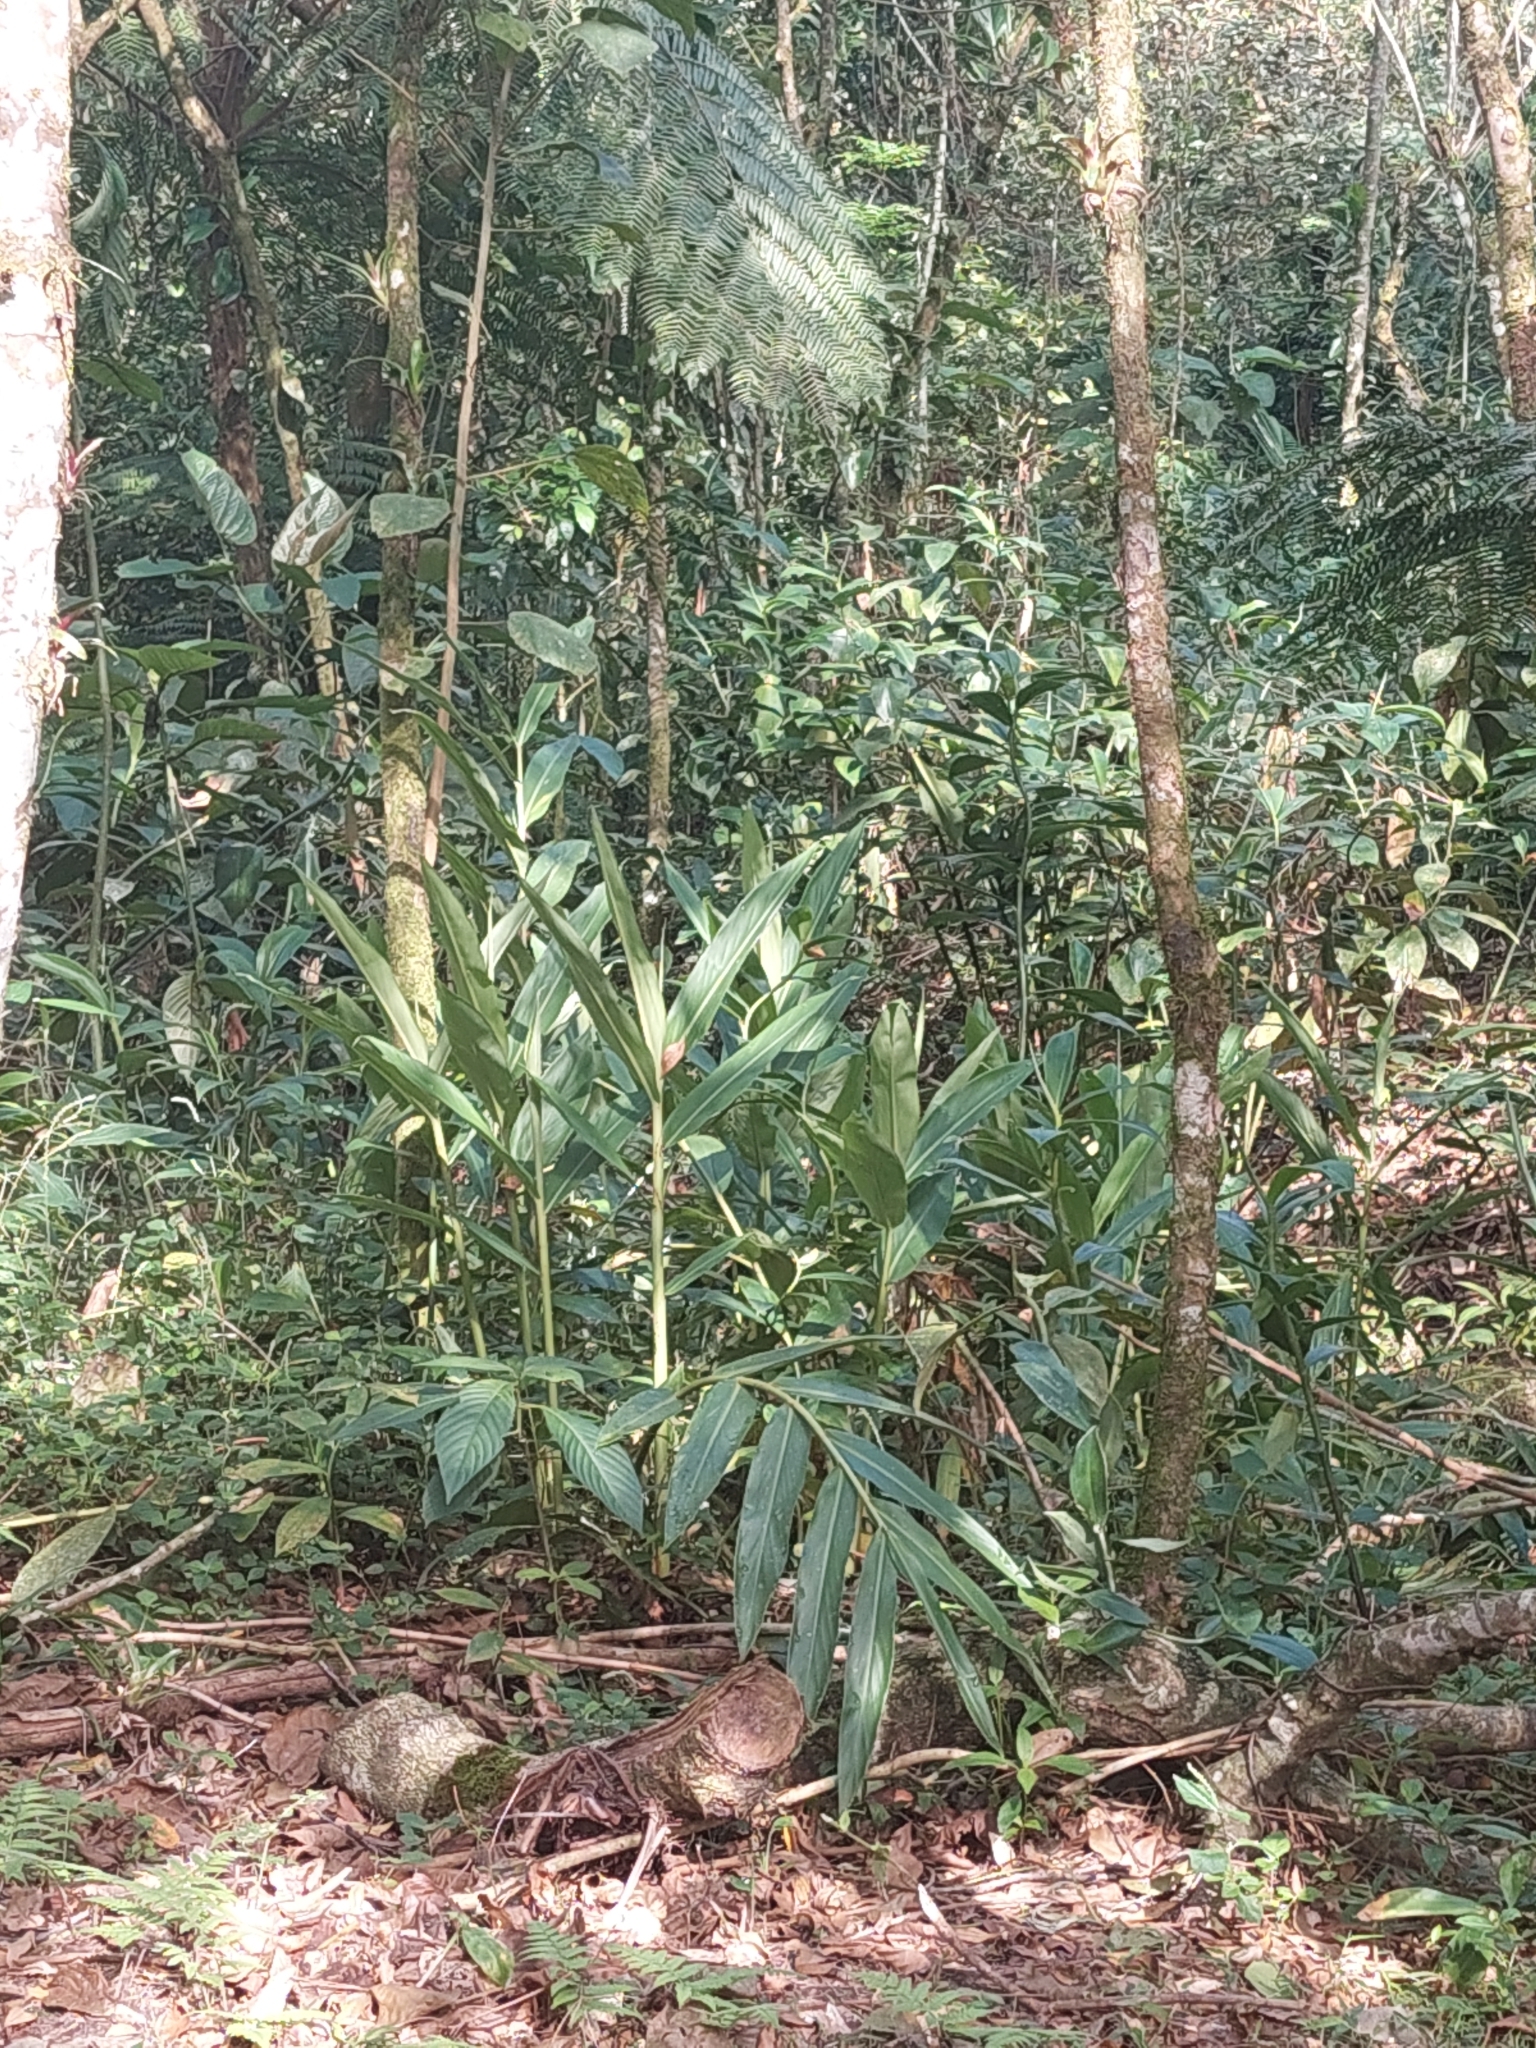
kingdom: Plantae
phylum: Tracheophyta
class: Liliopsida
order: Zingiberales
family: Zingiberaceae
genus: Hedychium
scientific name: Hedychium coronarium
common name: White garland-lily
